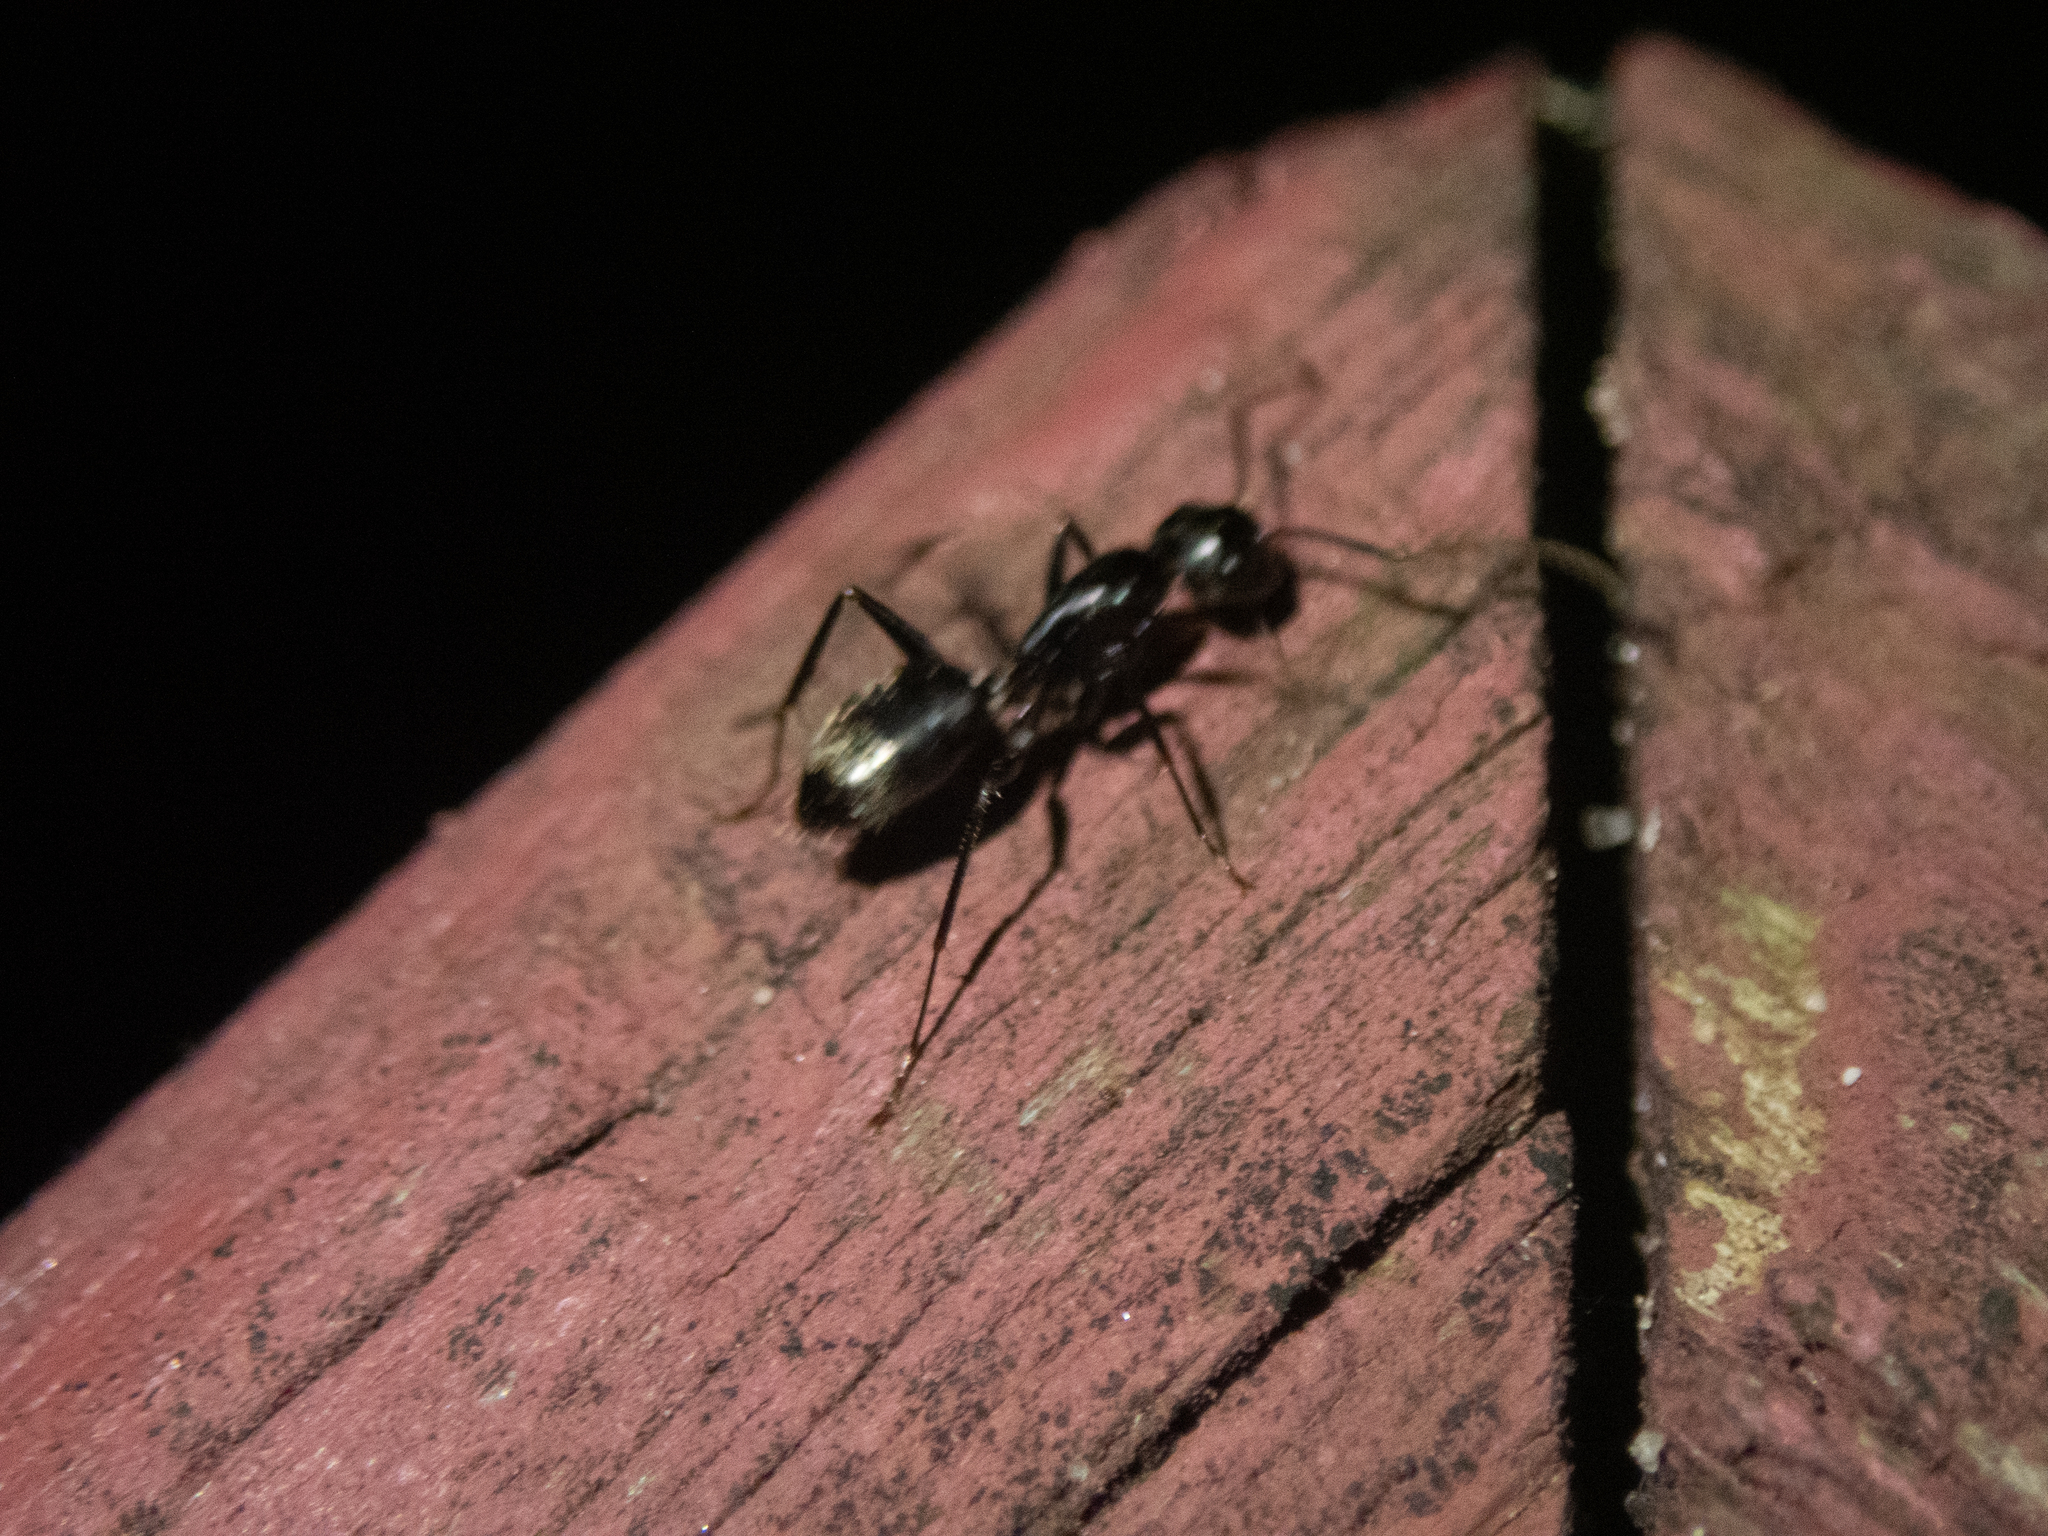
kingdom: Animalia
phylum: Arthropoda
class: Insecta
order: Hymenoptera
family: Formicidae
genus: Camponotus
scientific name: Camponotus pennsylvanicus
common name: Black carpenter ant
